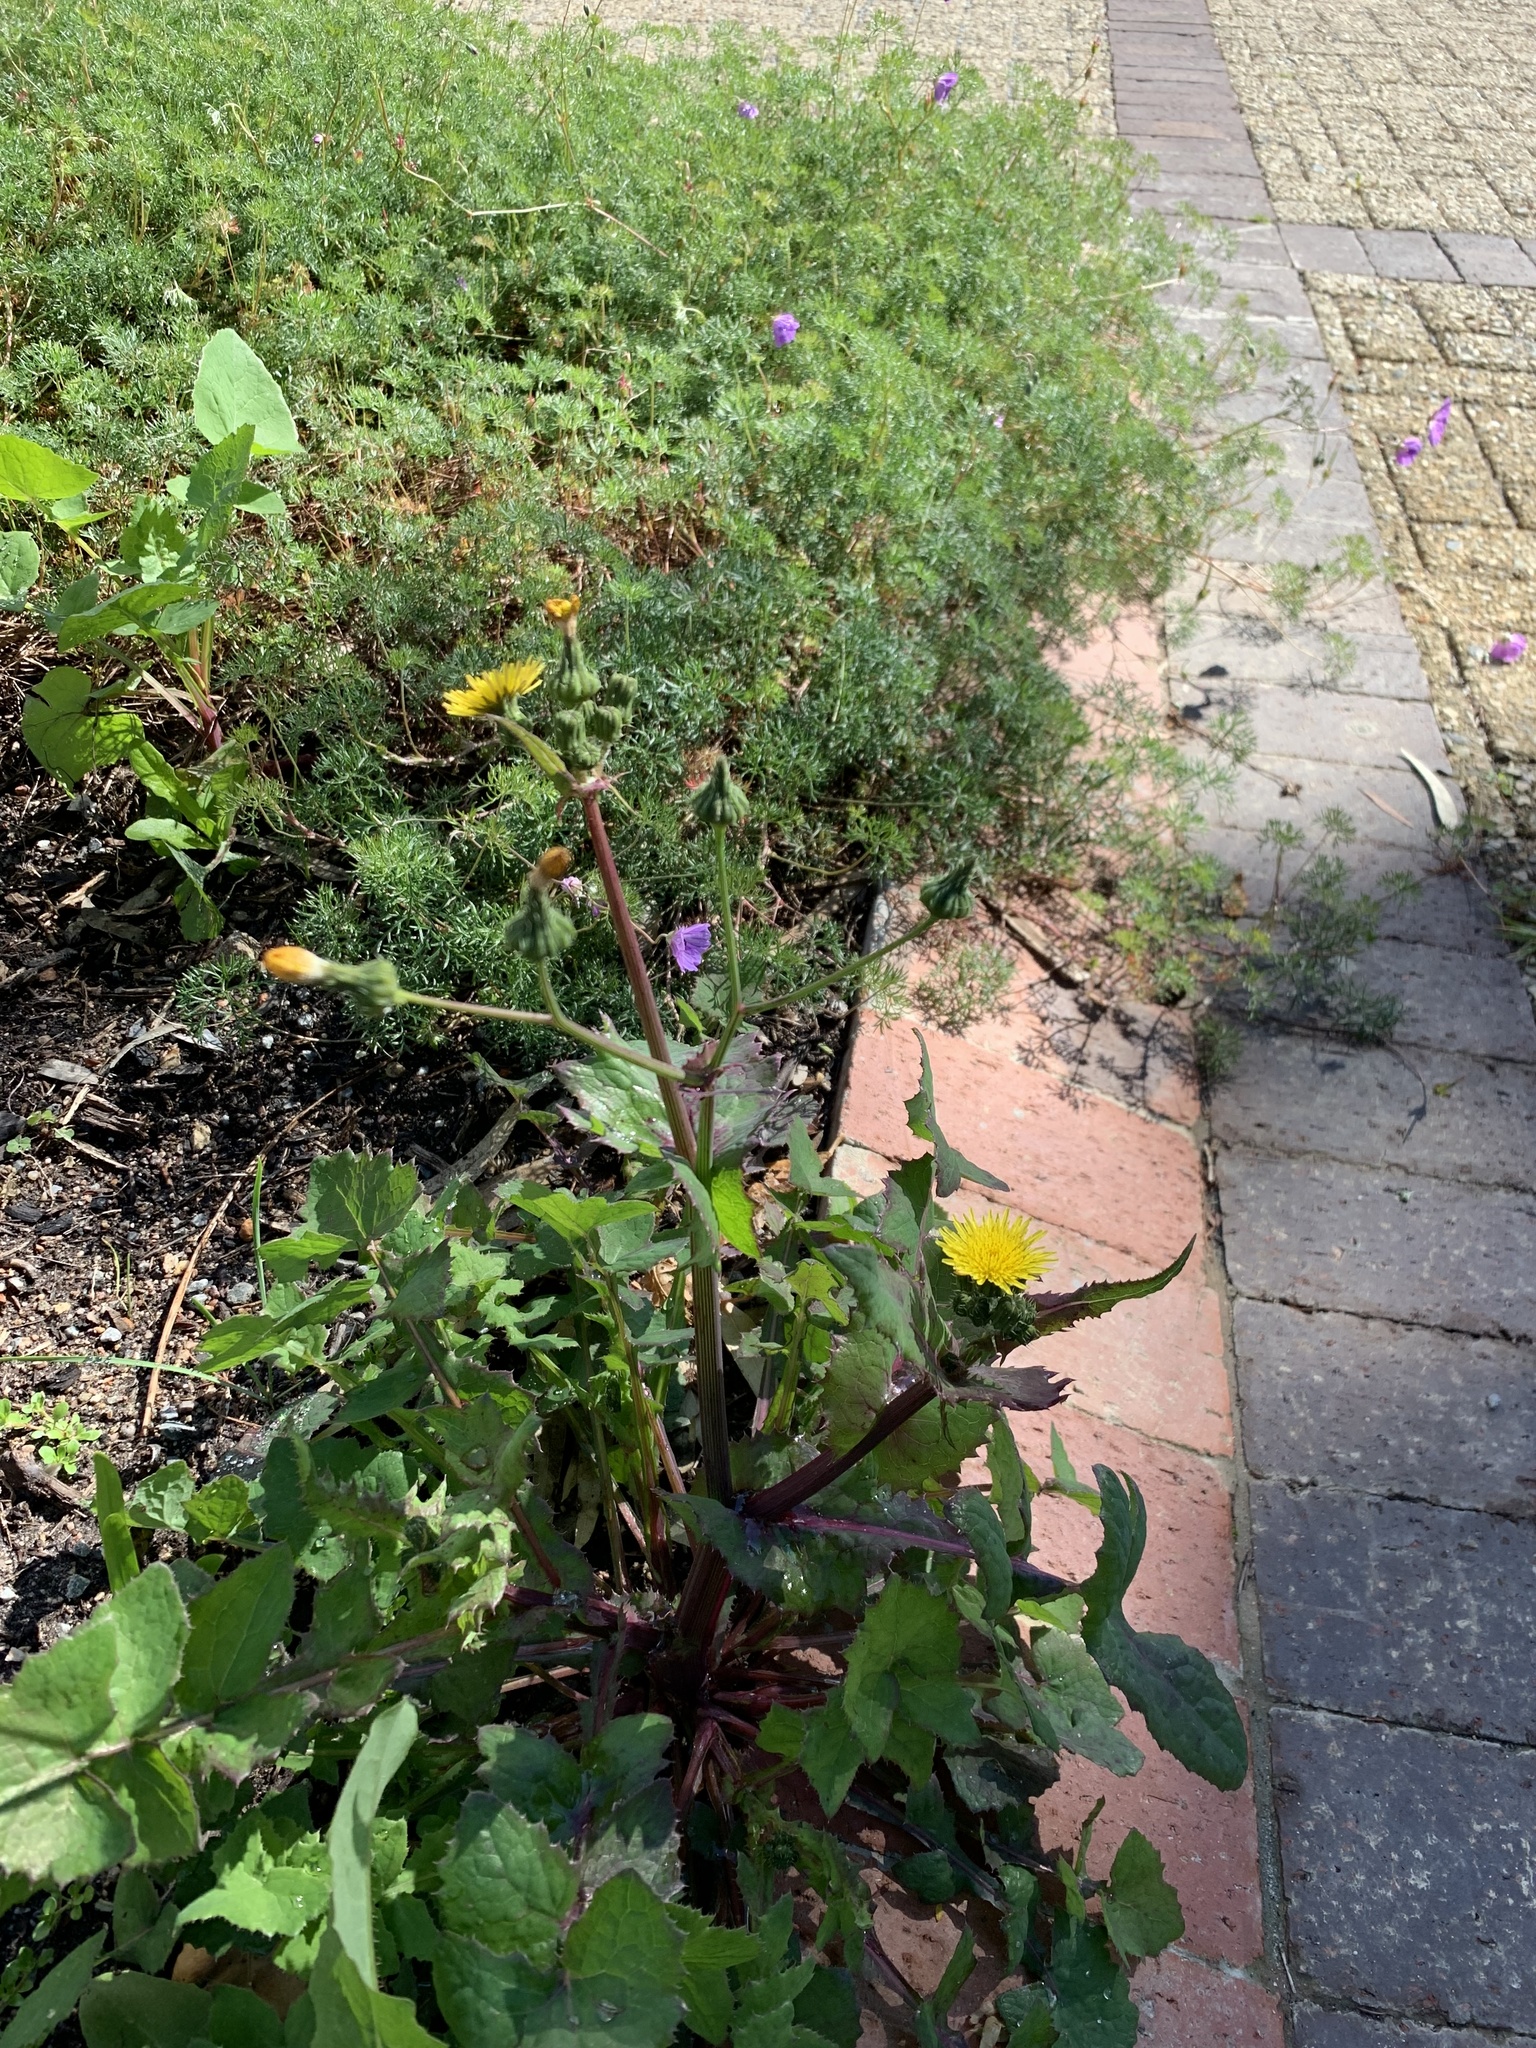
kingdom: Plantae
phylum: Tracheophyta
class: Magnoliopsida
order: Asterales
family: Asteraceae
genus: Sonchus
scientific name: Sonchus oleraceus
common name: Common sowthistle
